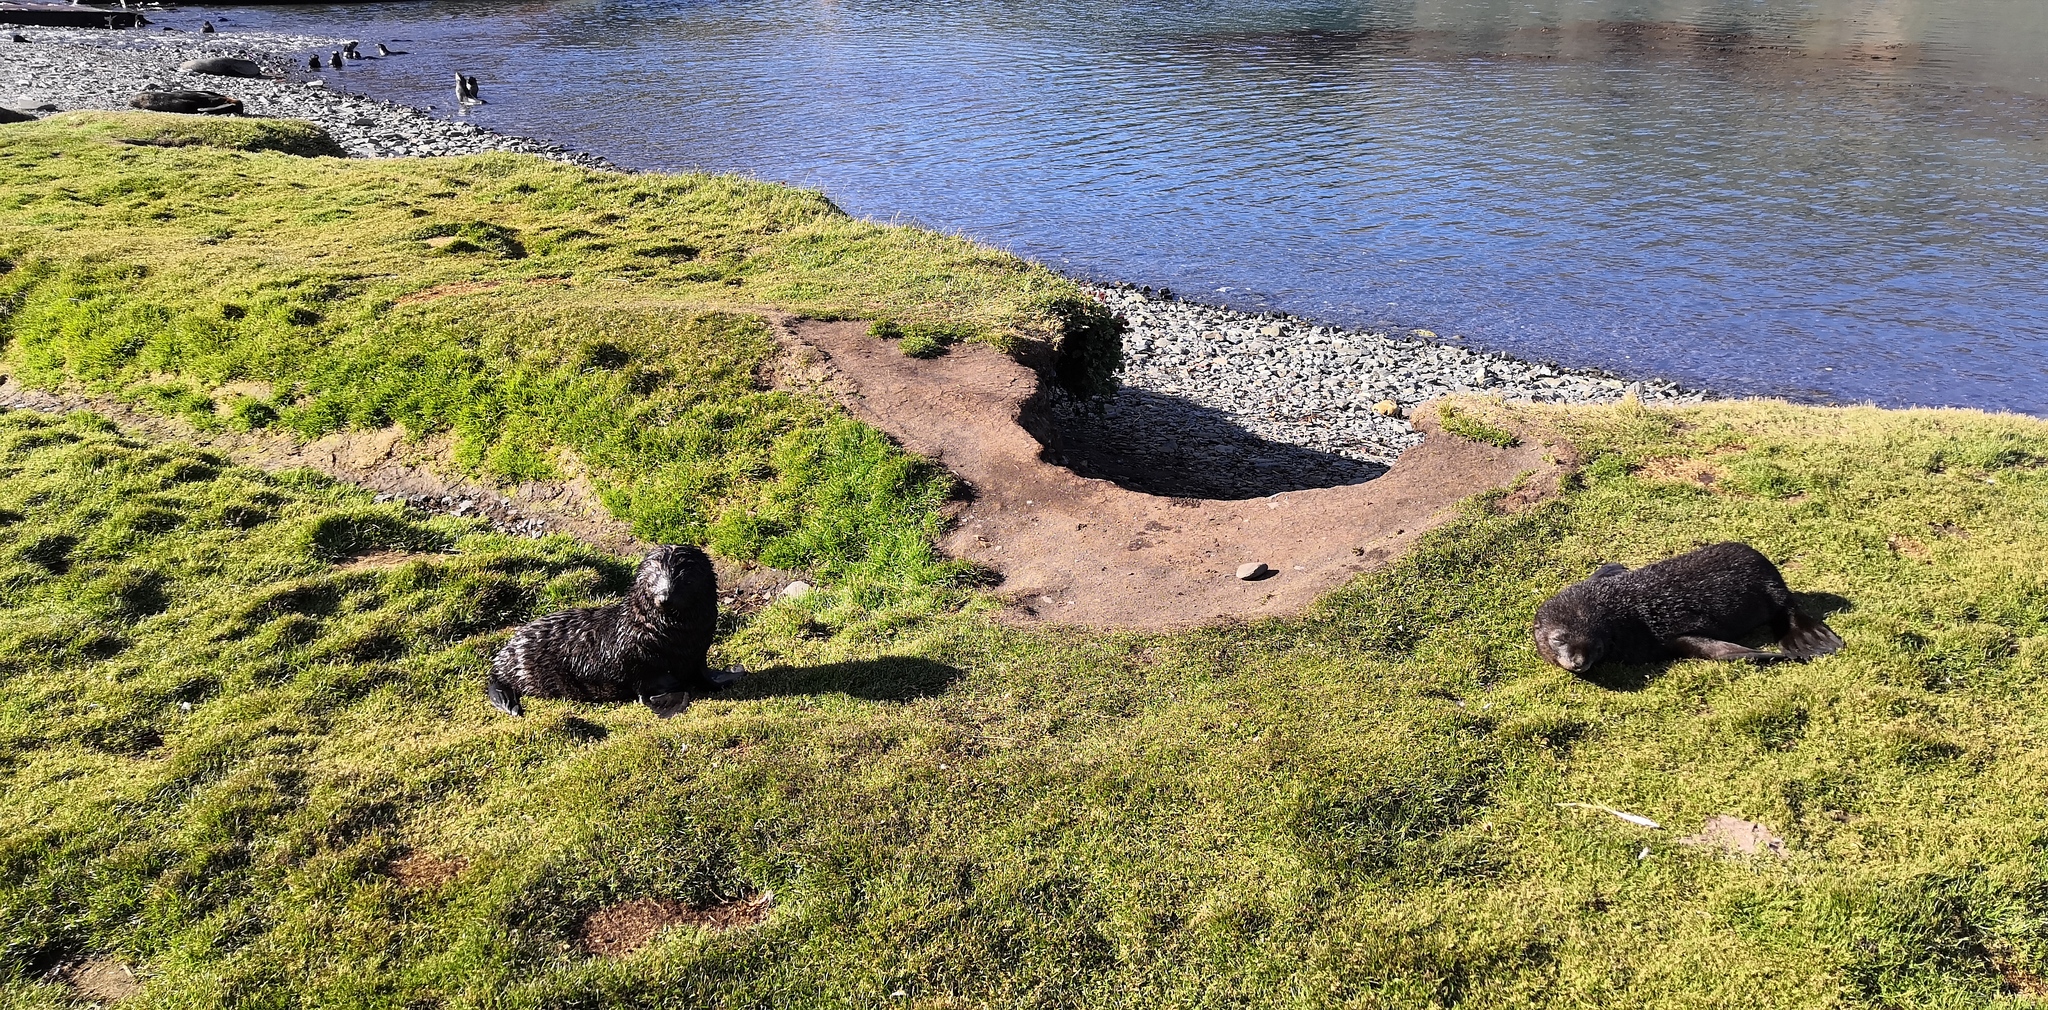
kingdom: Animalia
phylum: Chordata
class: Mammalia
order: Carnivora
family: Otariidae
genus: Arctocephalus
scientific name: Arctocephalus gazella
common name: Antarctic fur seal
